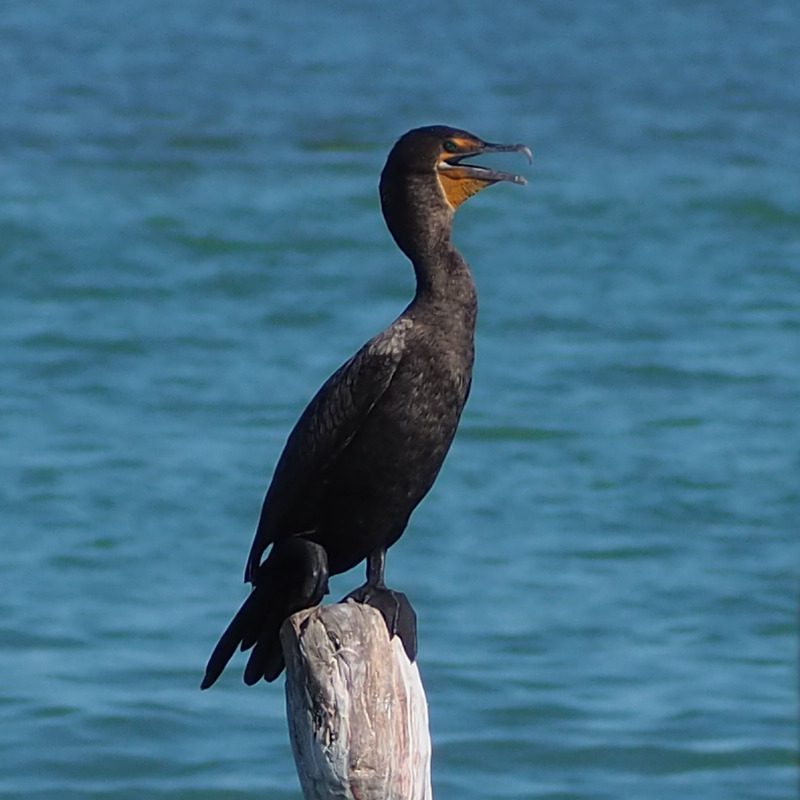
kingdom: Animalia
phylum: Chordata
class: Aves
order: Suliformes
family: Phalacrocoracidae
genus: Phalacrocorax
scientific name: Phalacrocorax auritus
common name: Double-crested cormorant
